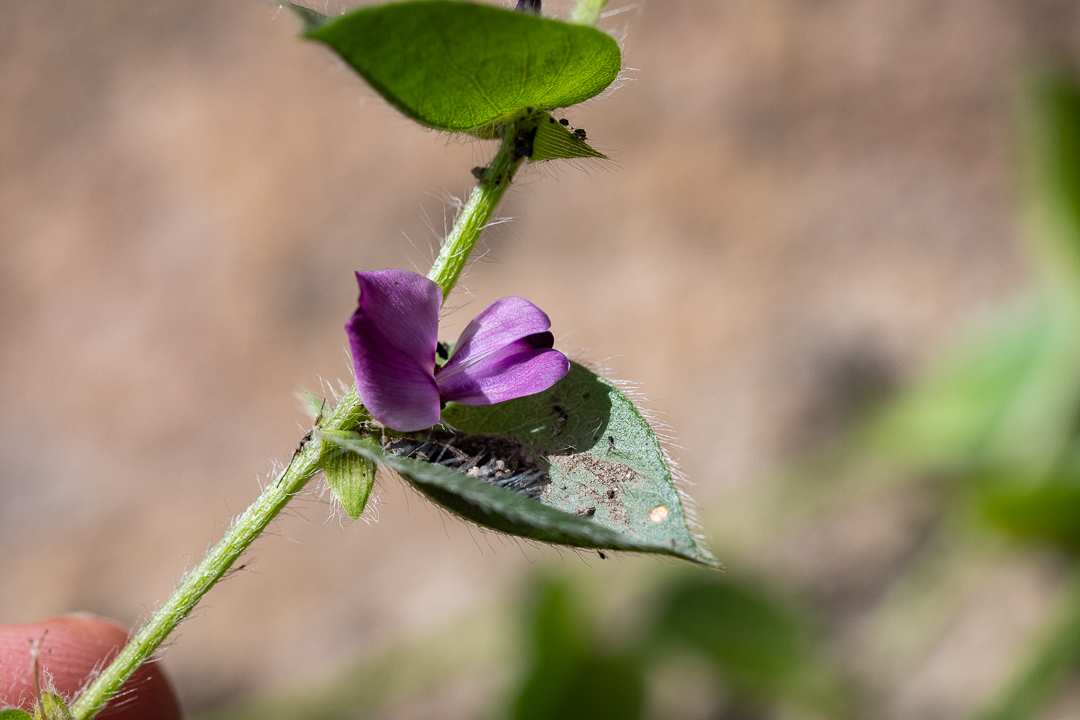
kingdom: Plantae
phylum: Tracheophyta
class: Magnoliopsida
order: Fabales
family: Fabaceae
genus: Psoralea
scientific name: Psoralea asarina
